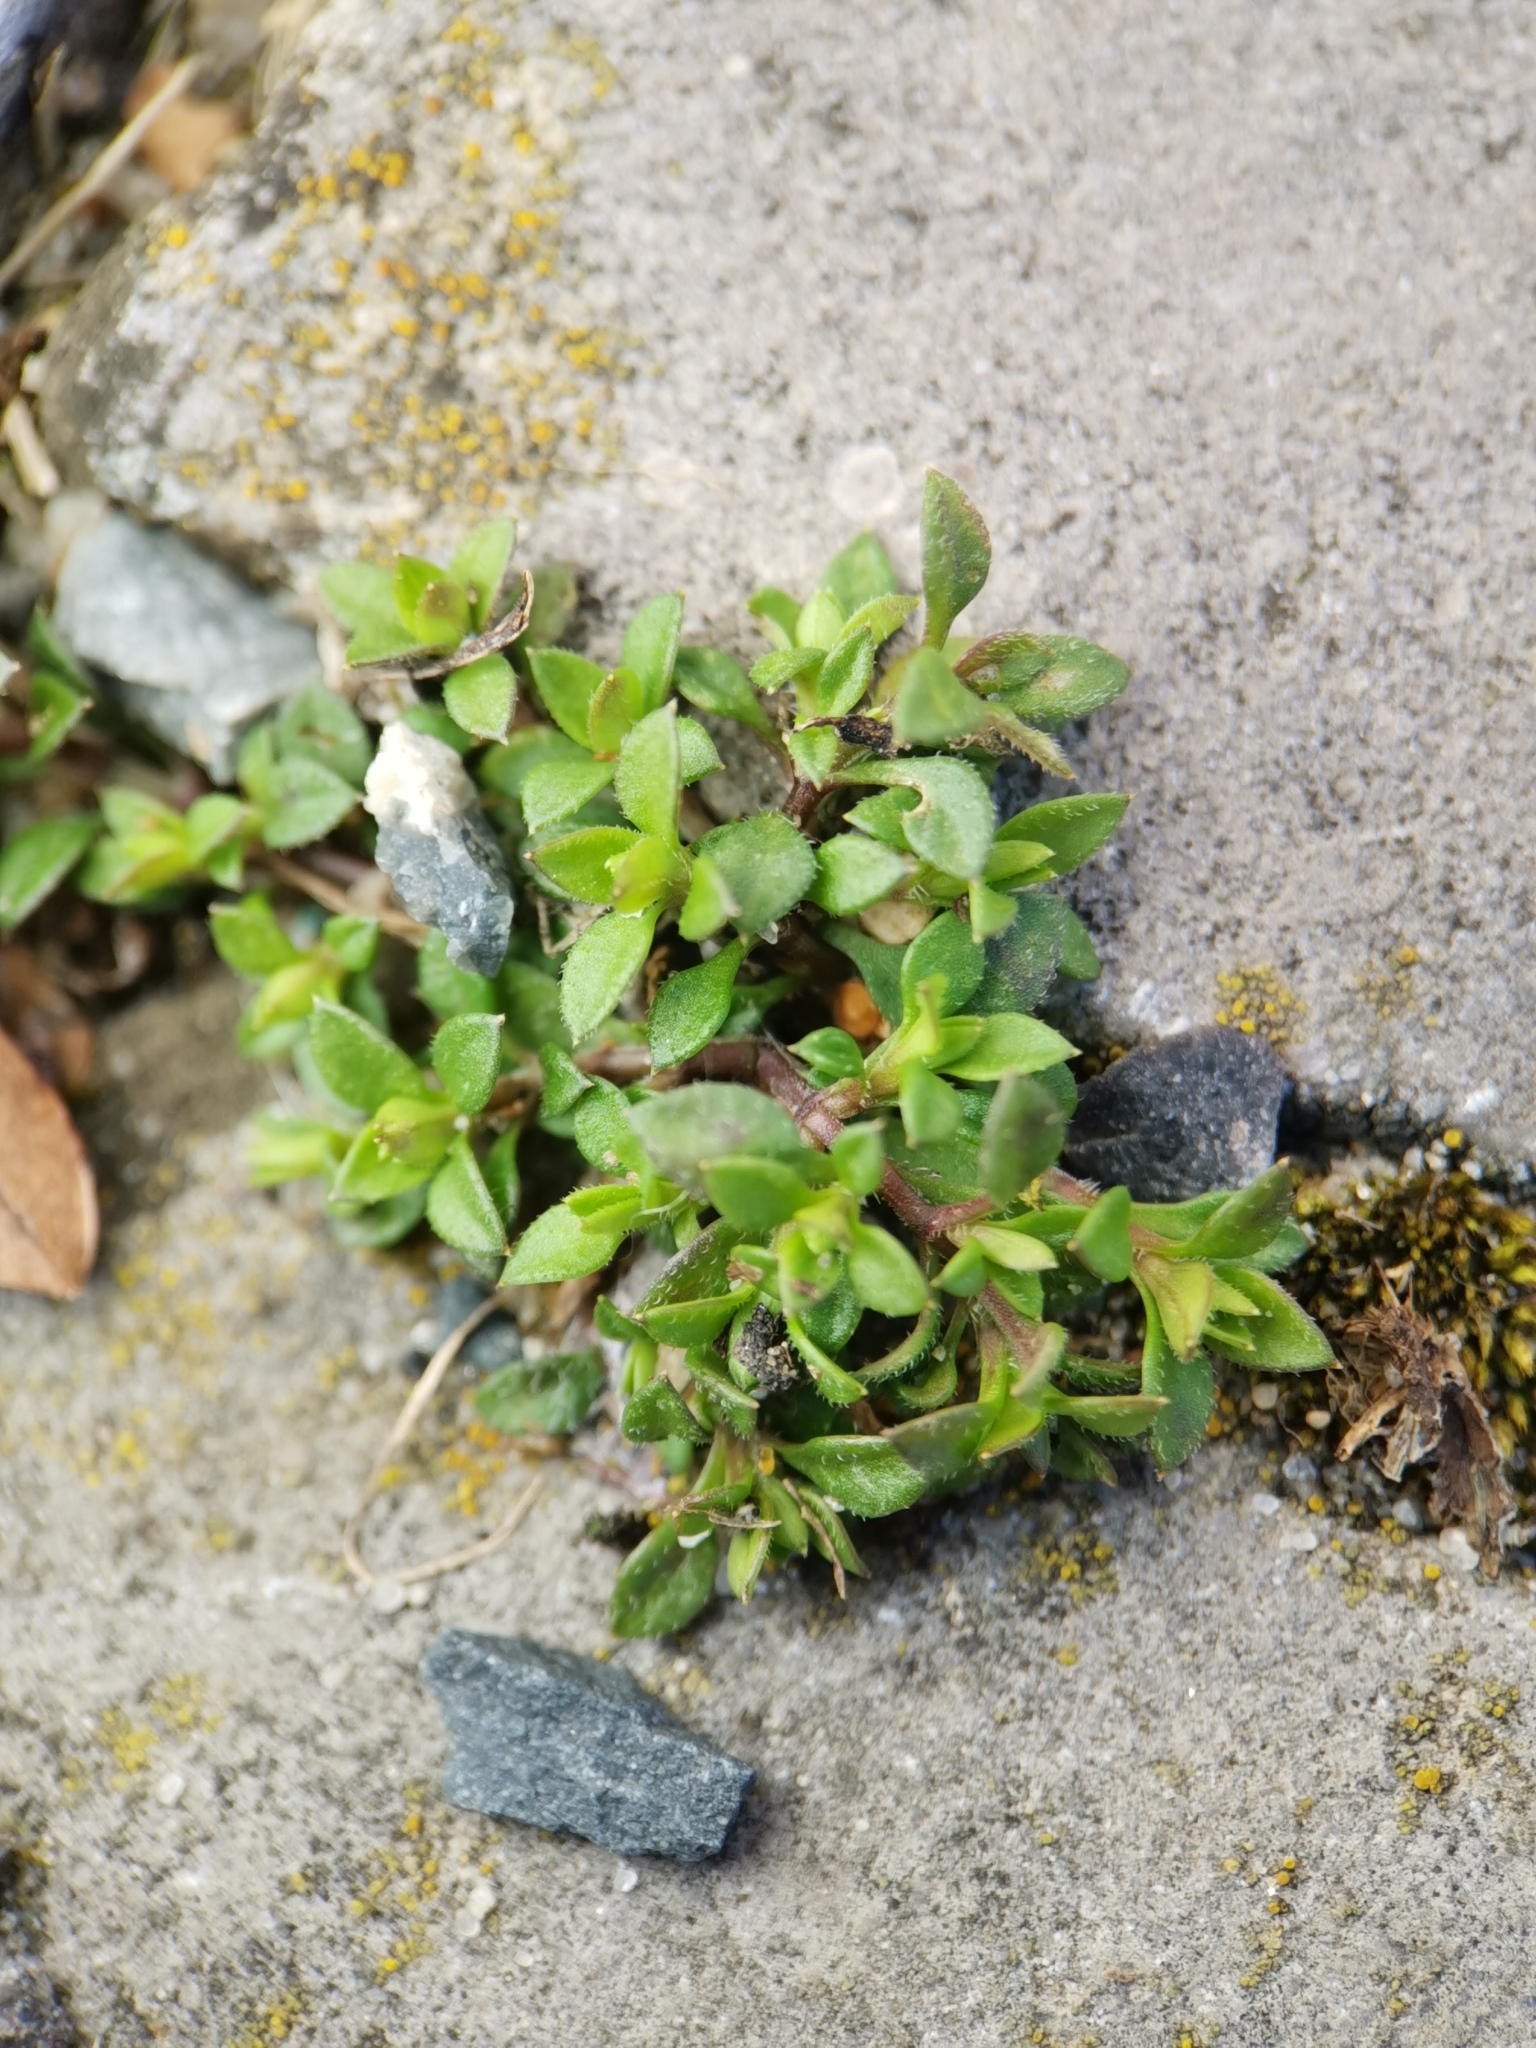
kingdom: Plantae
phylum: Tracheophyta
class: Magnoliopsida
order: Caryophyllales
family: Caryophyllaceae
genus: Arenaria
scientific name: Arenaria serpyllifolia
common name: Thyme-leaved sandwort
